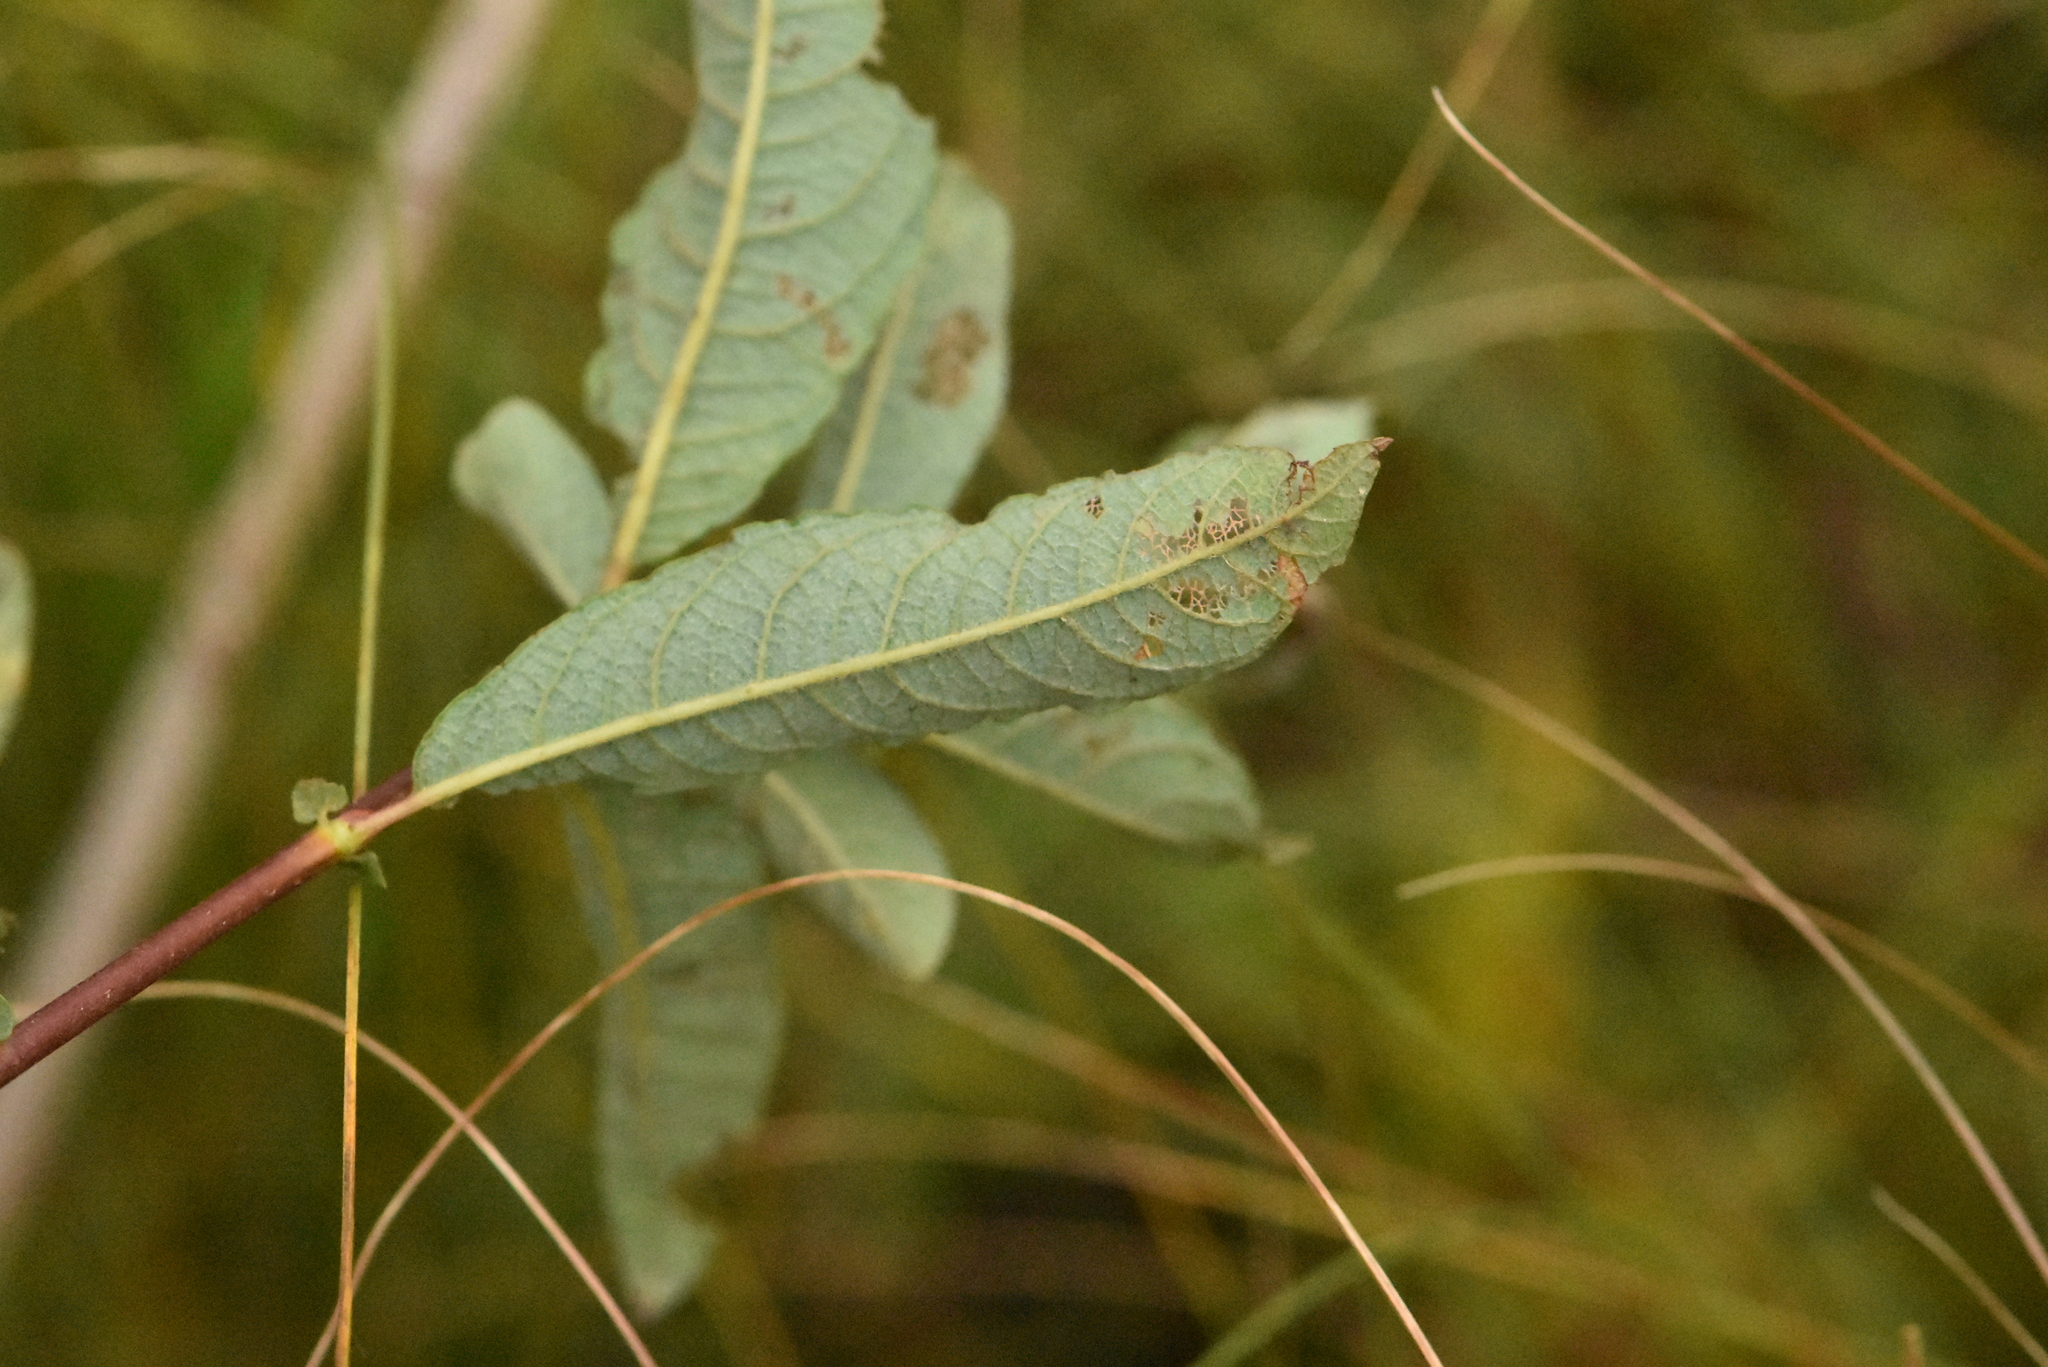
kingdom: Plantae
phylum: Tracheophyta
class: Magnoliopsida
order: Malpighiales
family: Salicaceae
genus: Salix
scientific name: Salix aurita
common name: Eared willow
